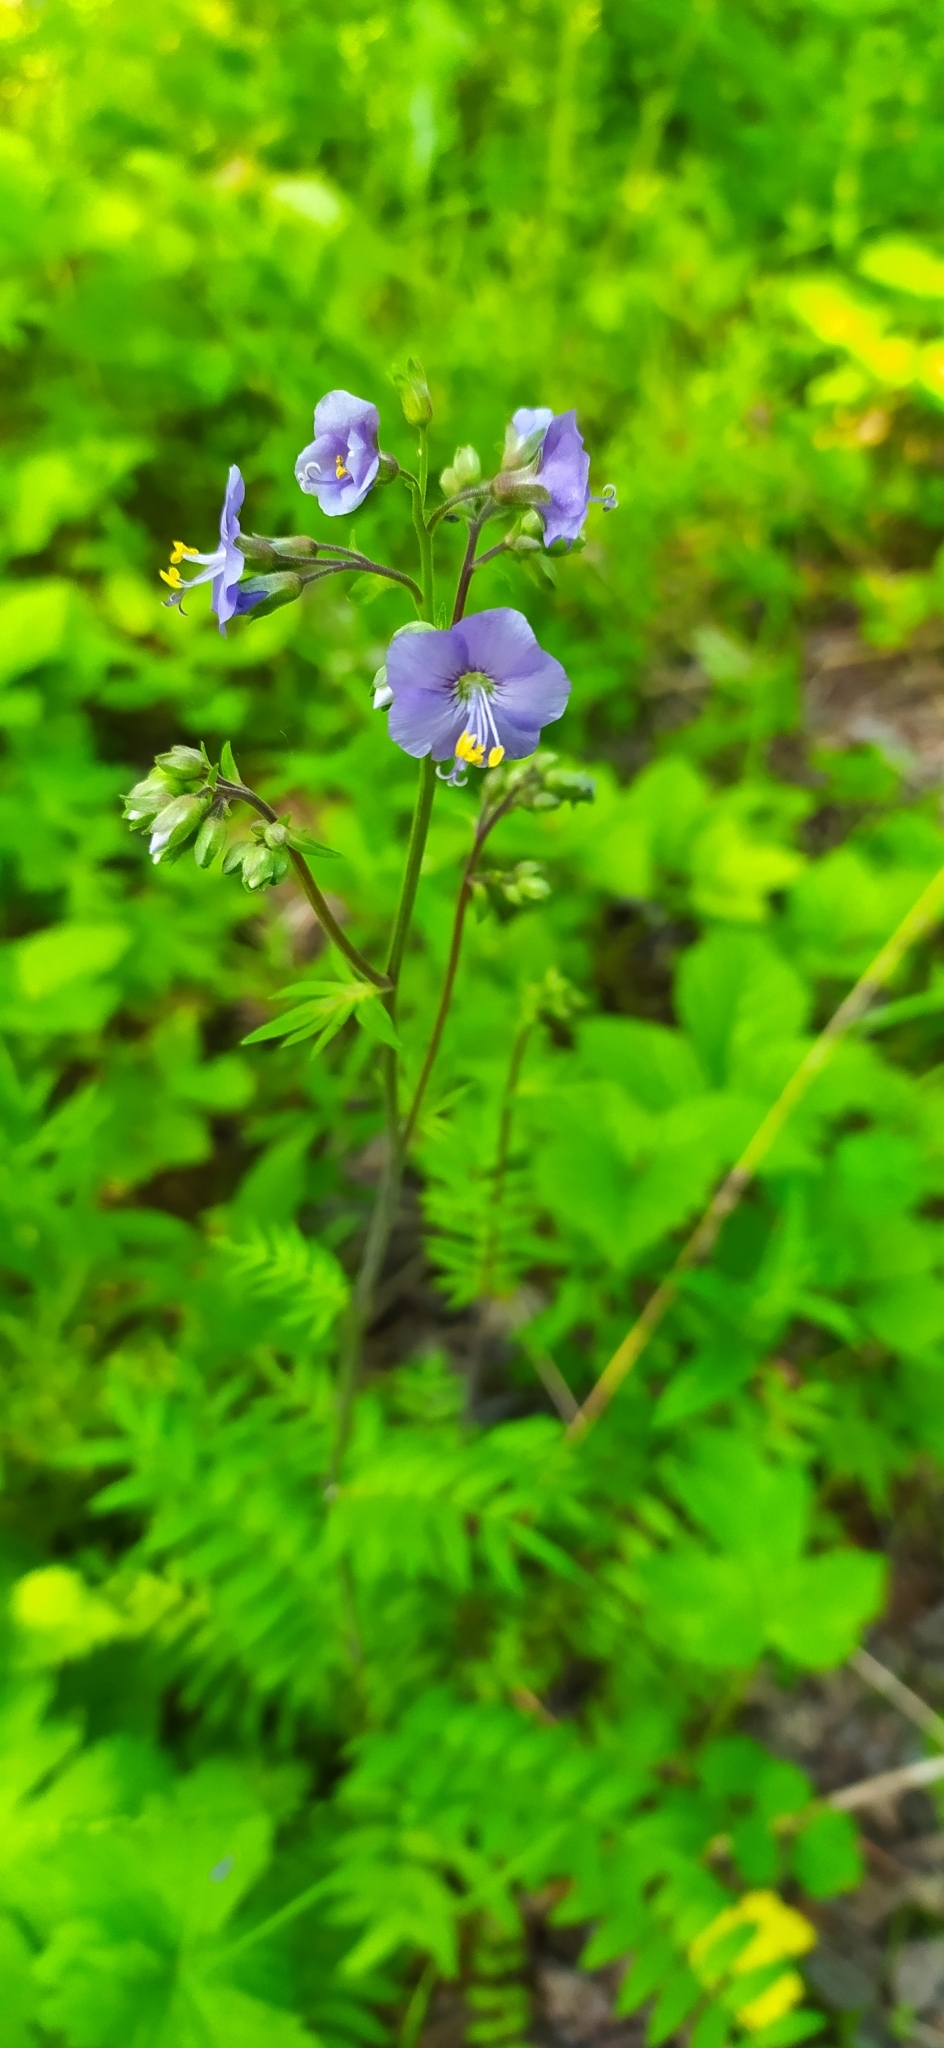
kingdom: Plantae
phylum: Tracheophyta
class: Magnoliopsida
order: Ericales
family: Polemoniaceae
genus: Polemonium
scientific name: Polemonium caeruleum
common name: Jacob's-ladder
